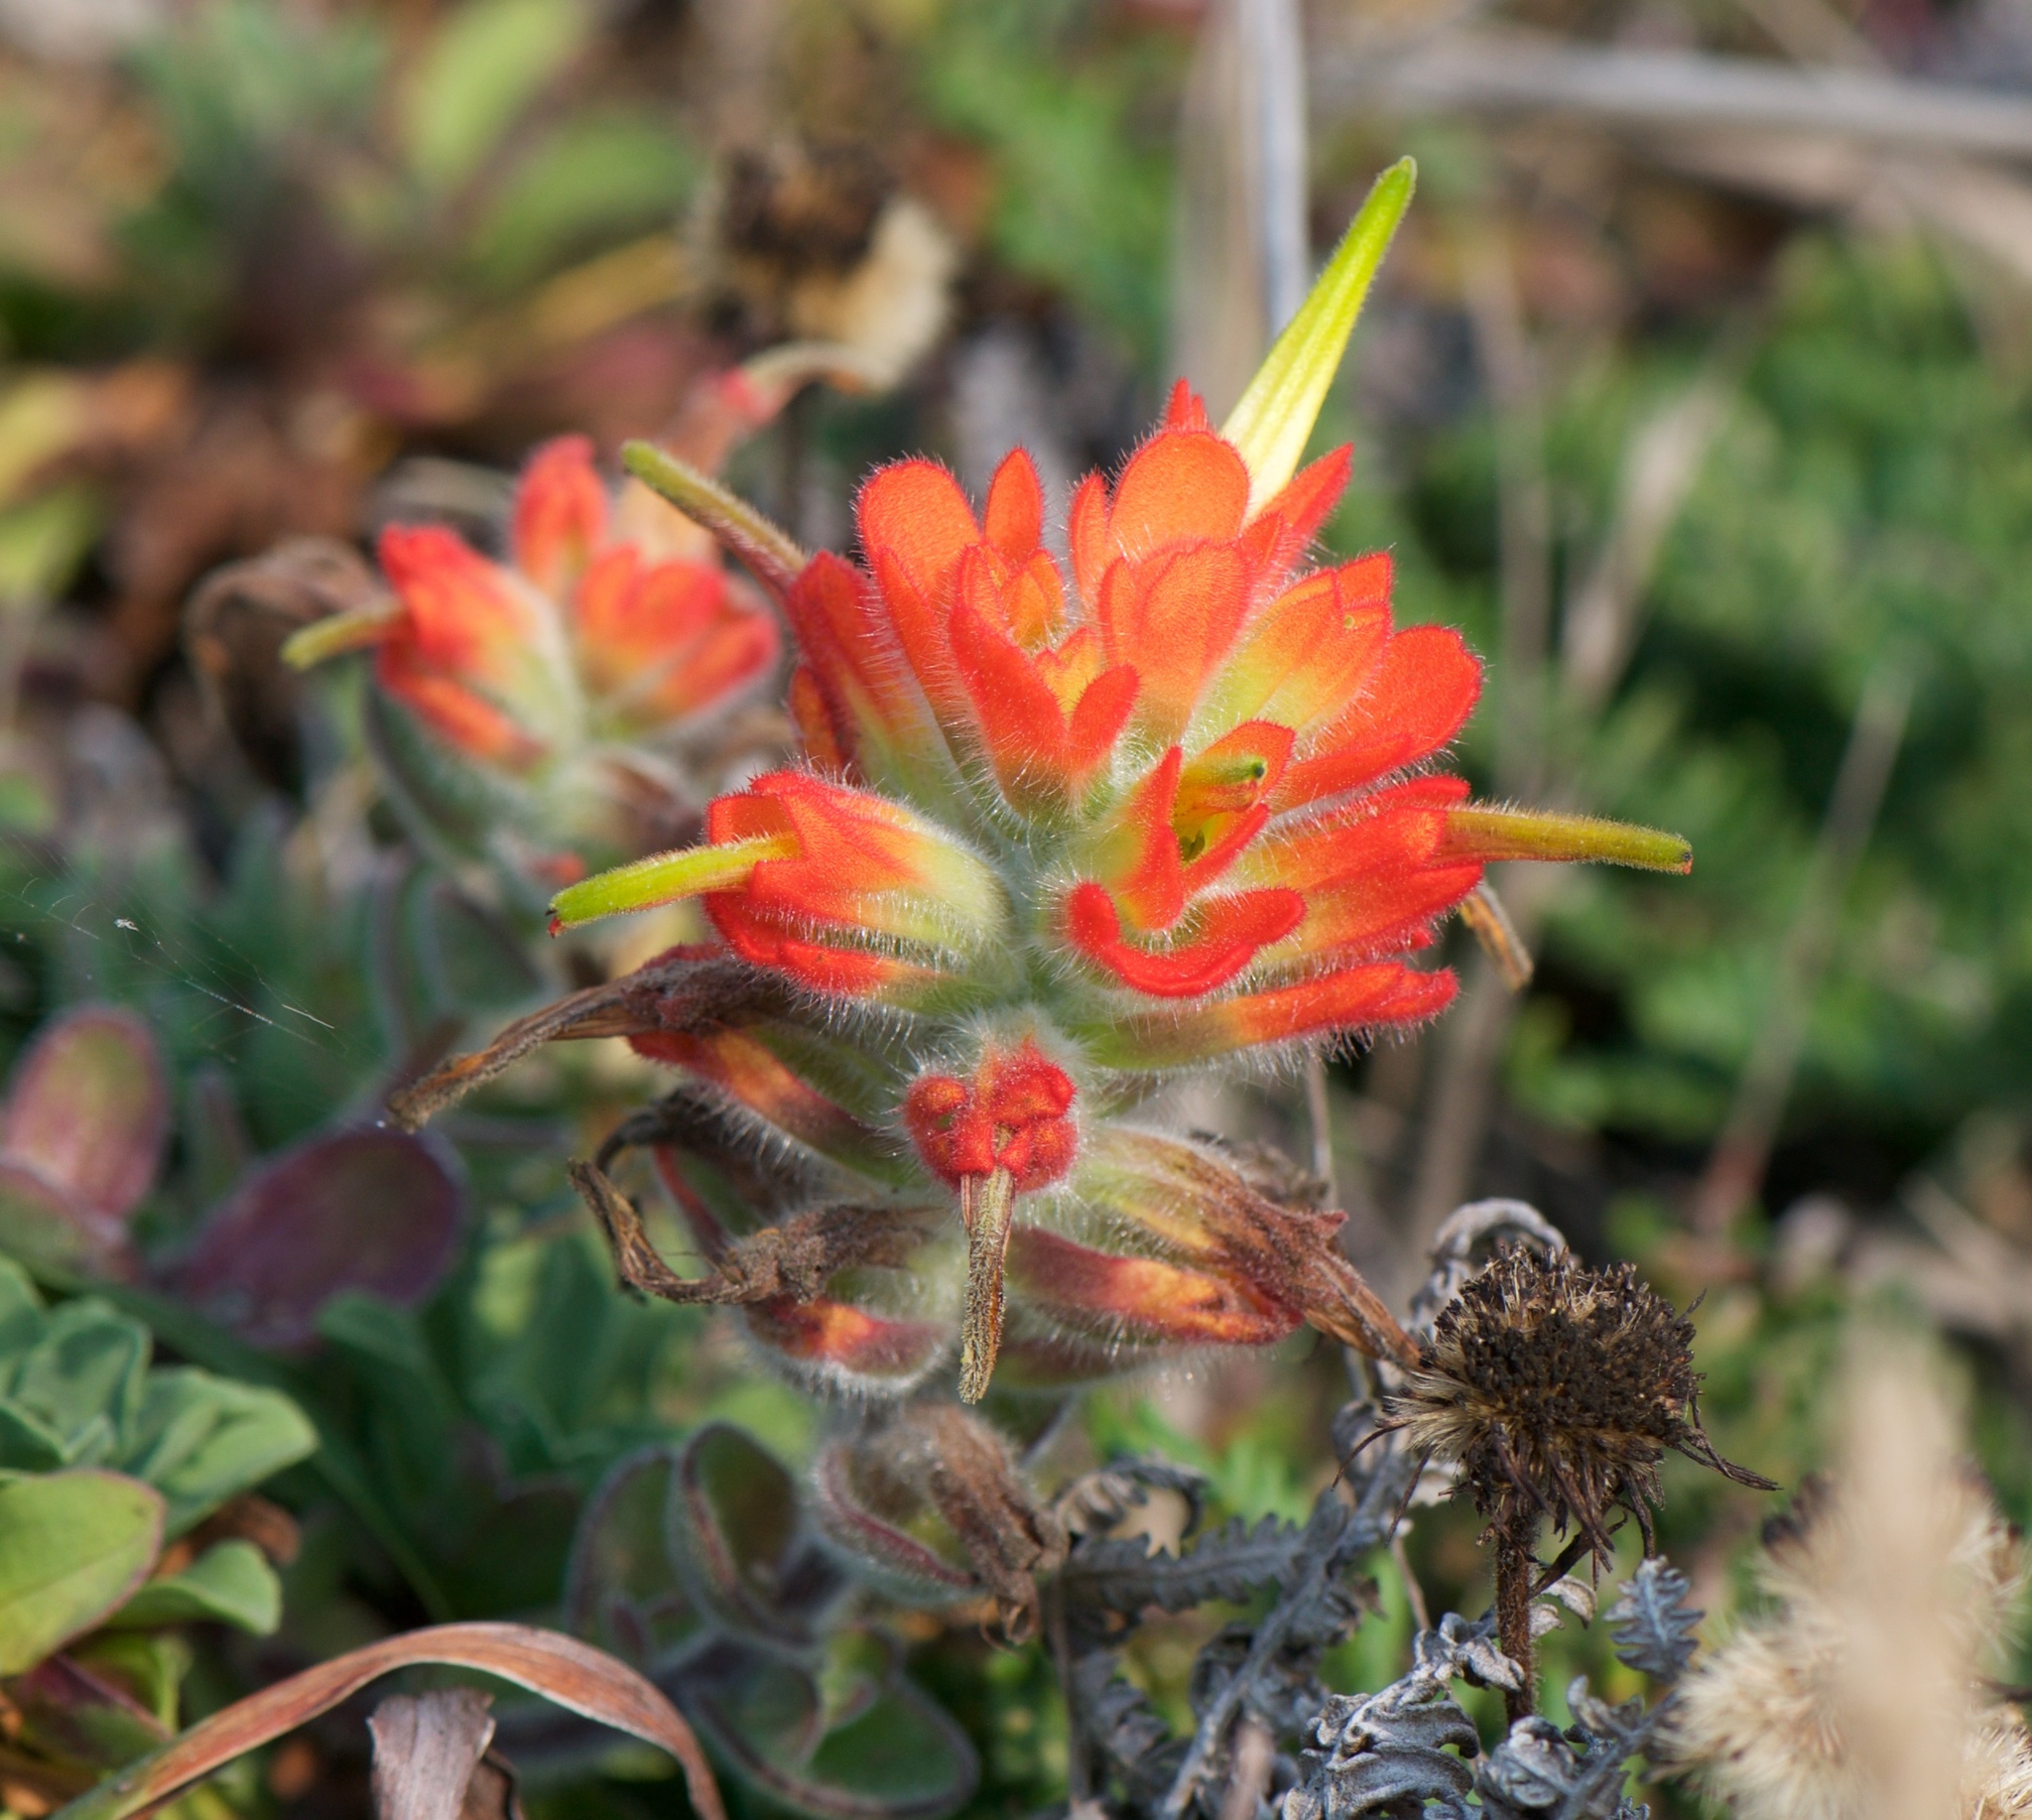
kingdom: Plantae
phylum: Tracheophyta
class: Magnoliopsida
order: Lamiales
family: Orobanchaceae
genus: Castilleja
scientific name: Castilleja mendocinensis
